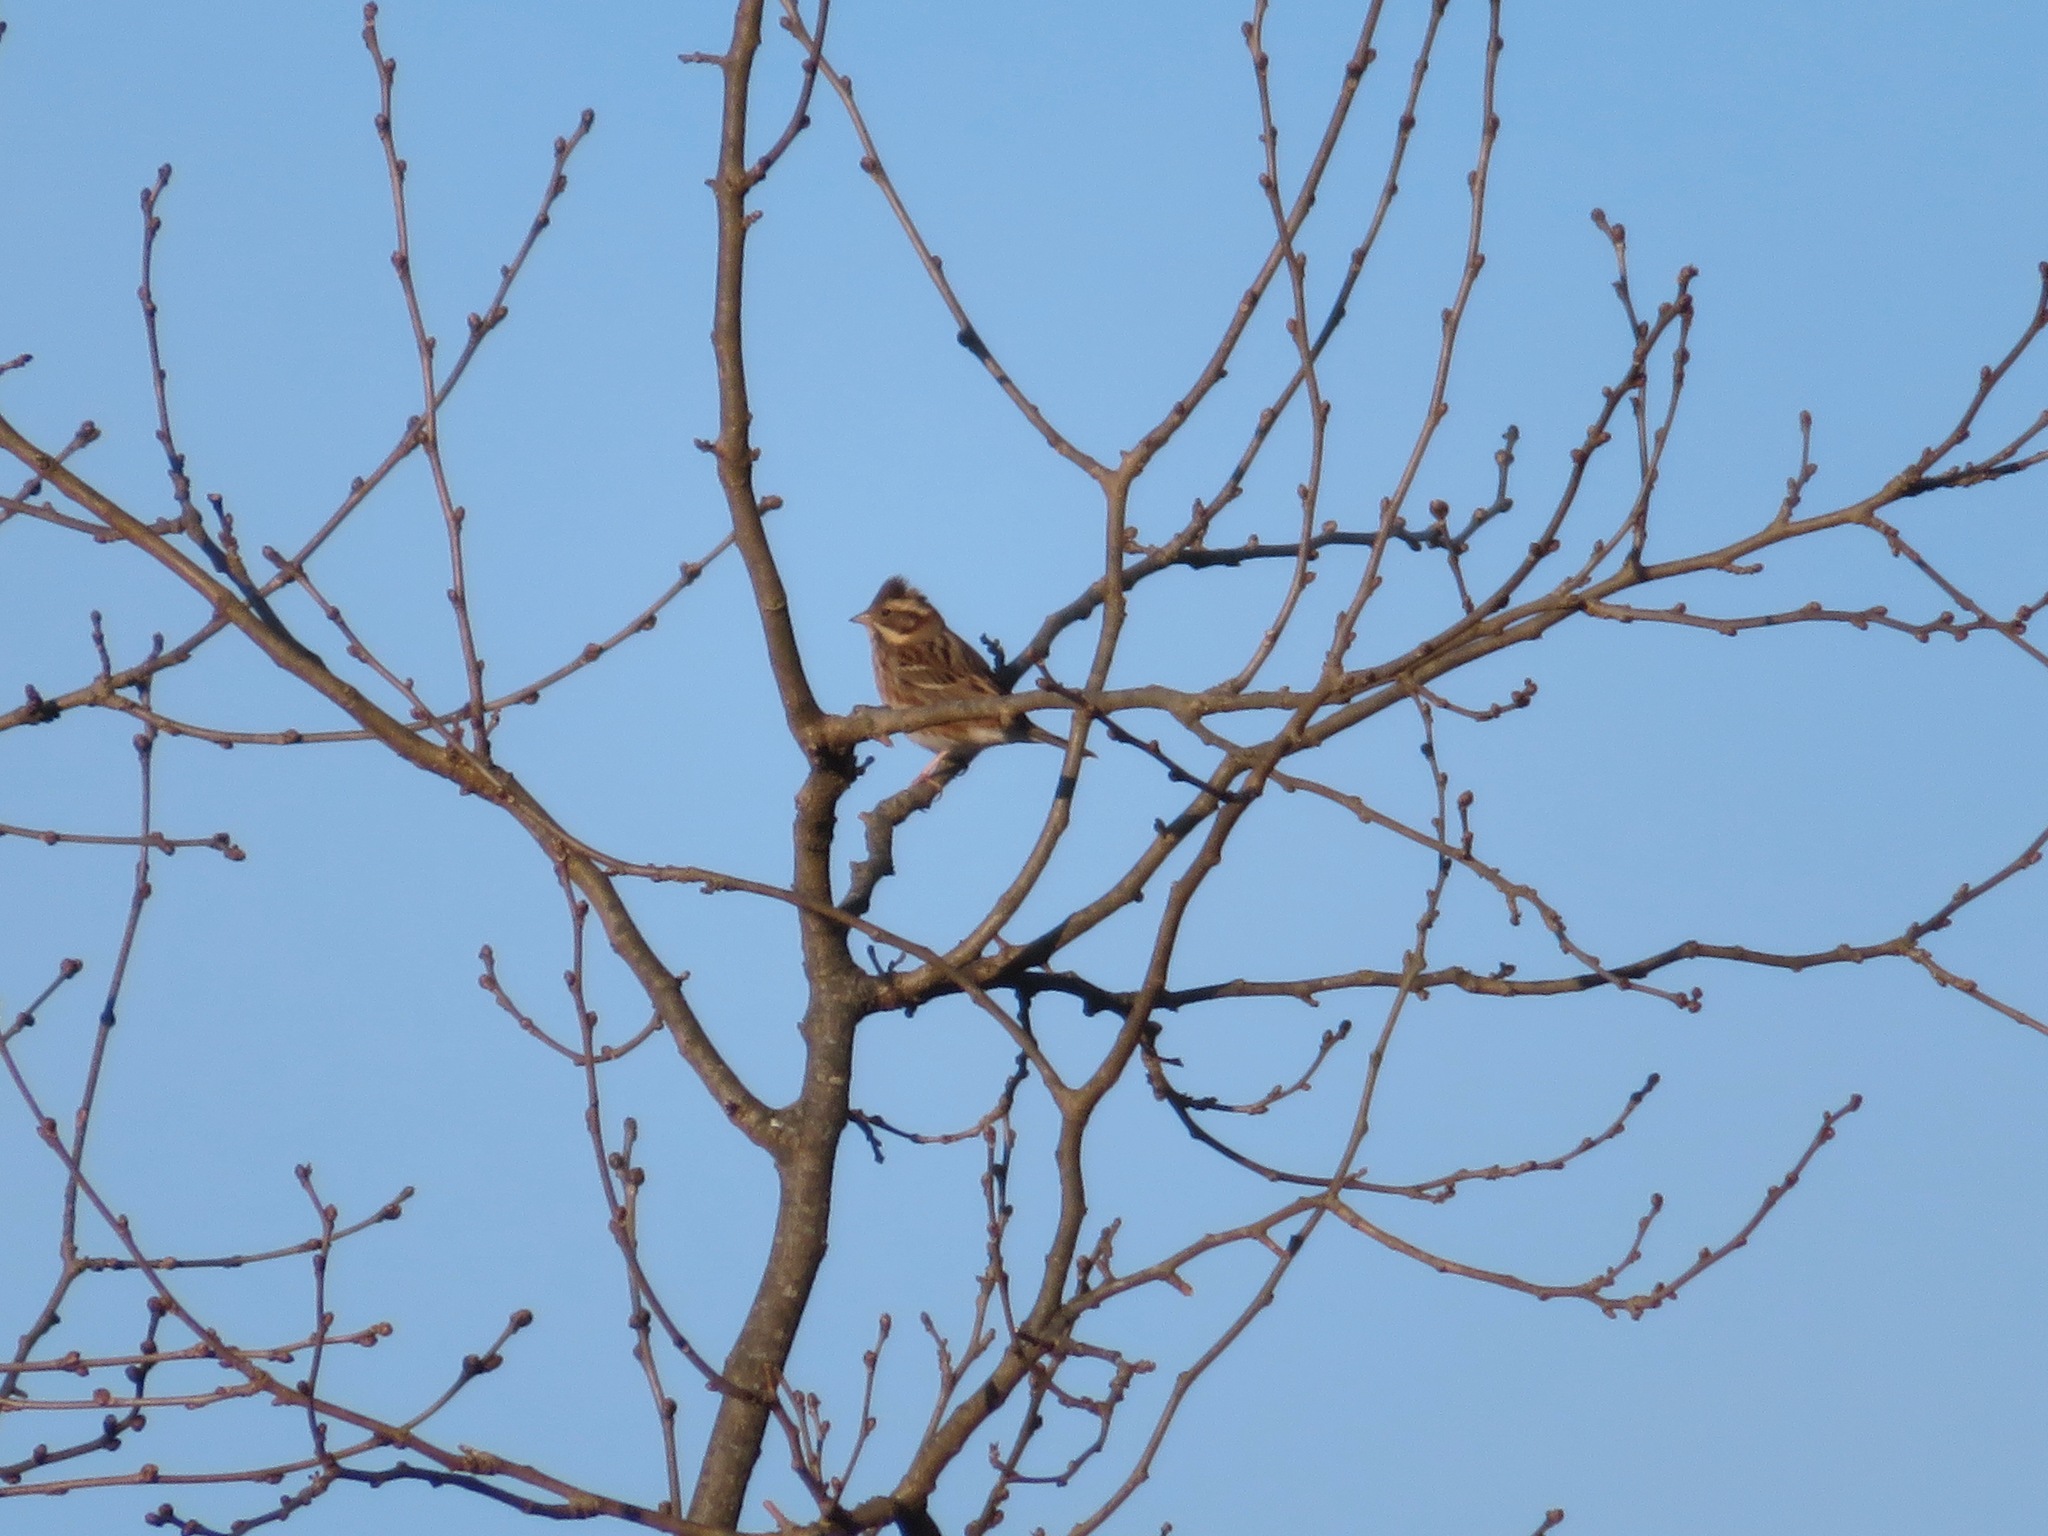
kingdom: Animalia
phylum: Chordata
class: Aves
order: Passeriformes
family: Emberizidae
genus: Emberiza
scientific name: Emberiza rustica
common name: Rustic bunting
